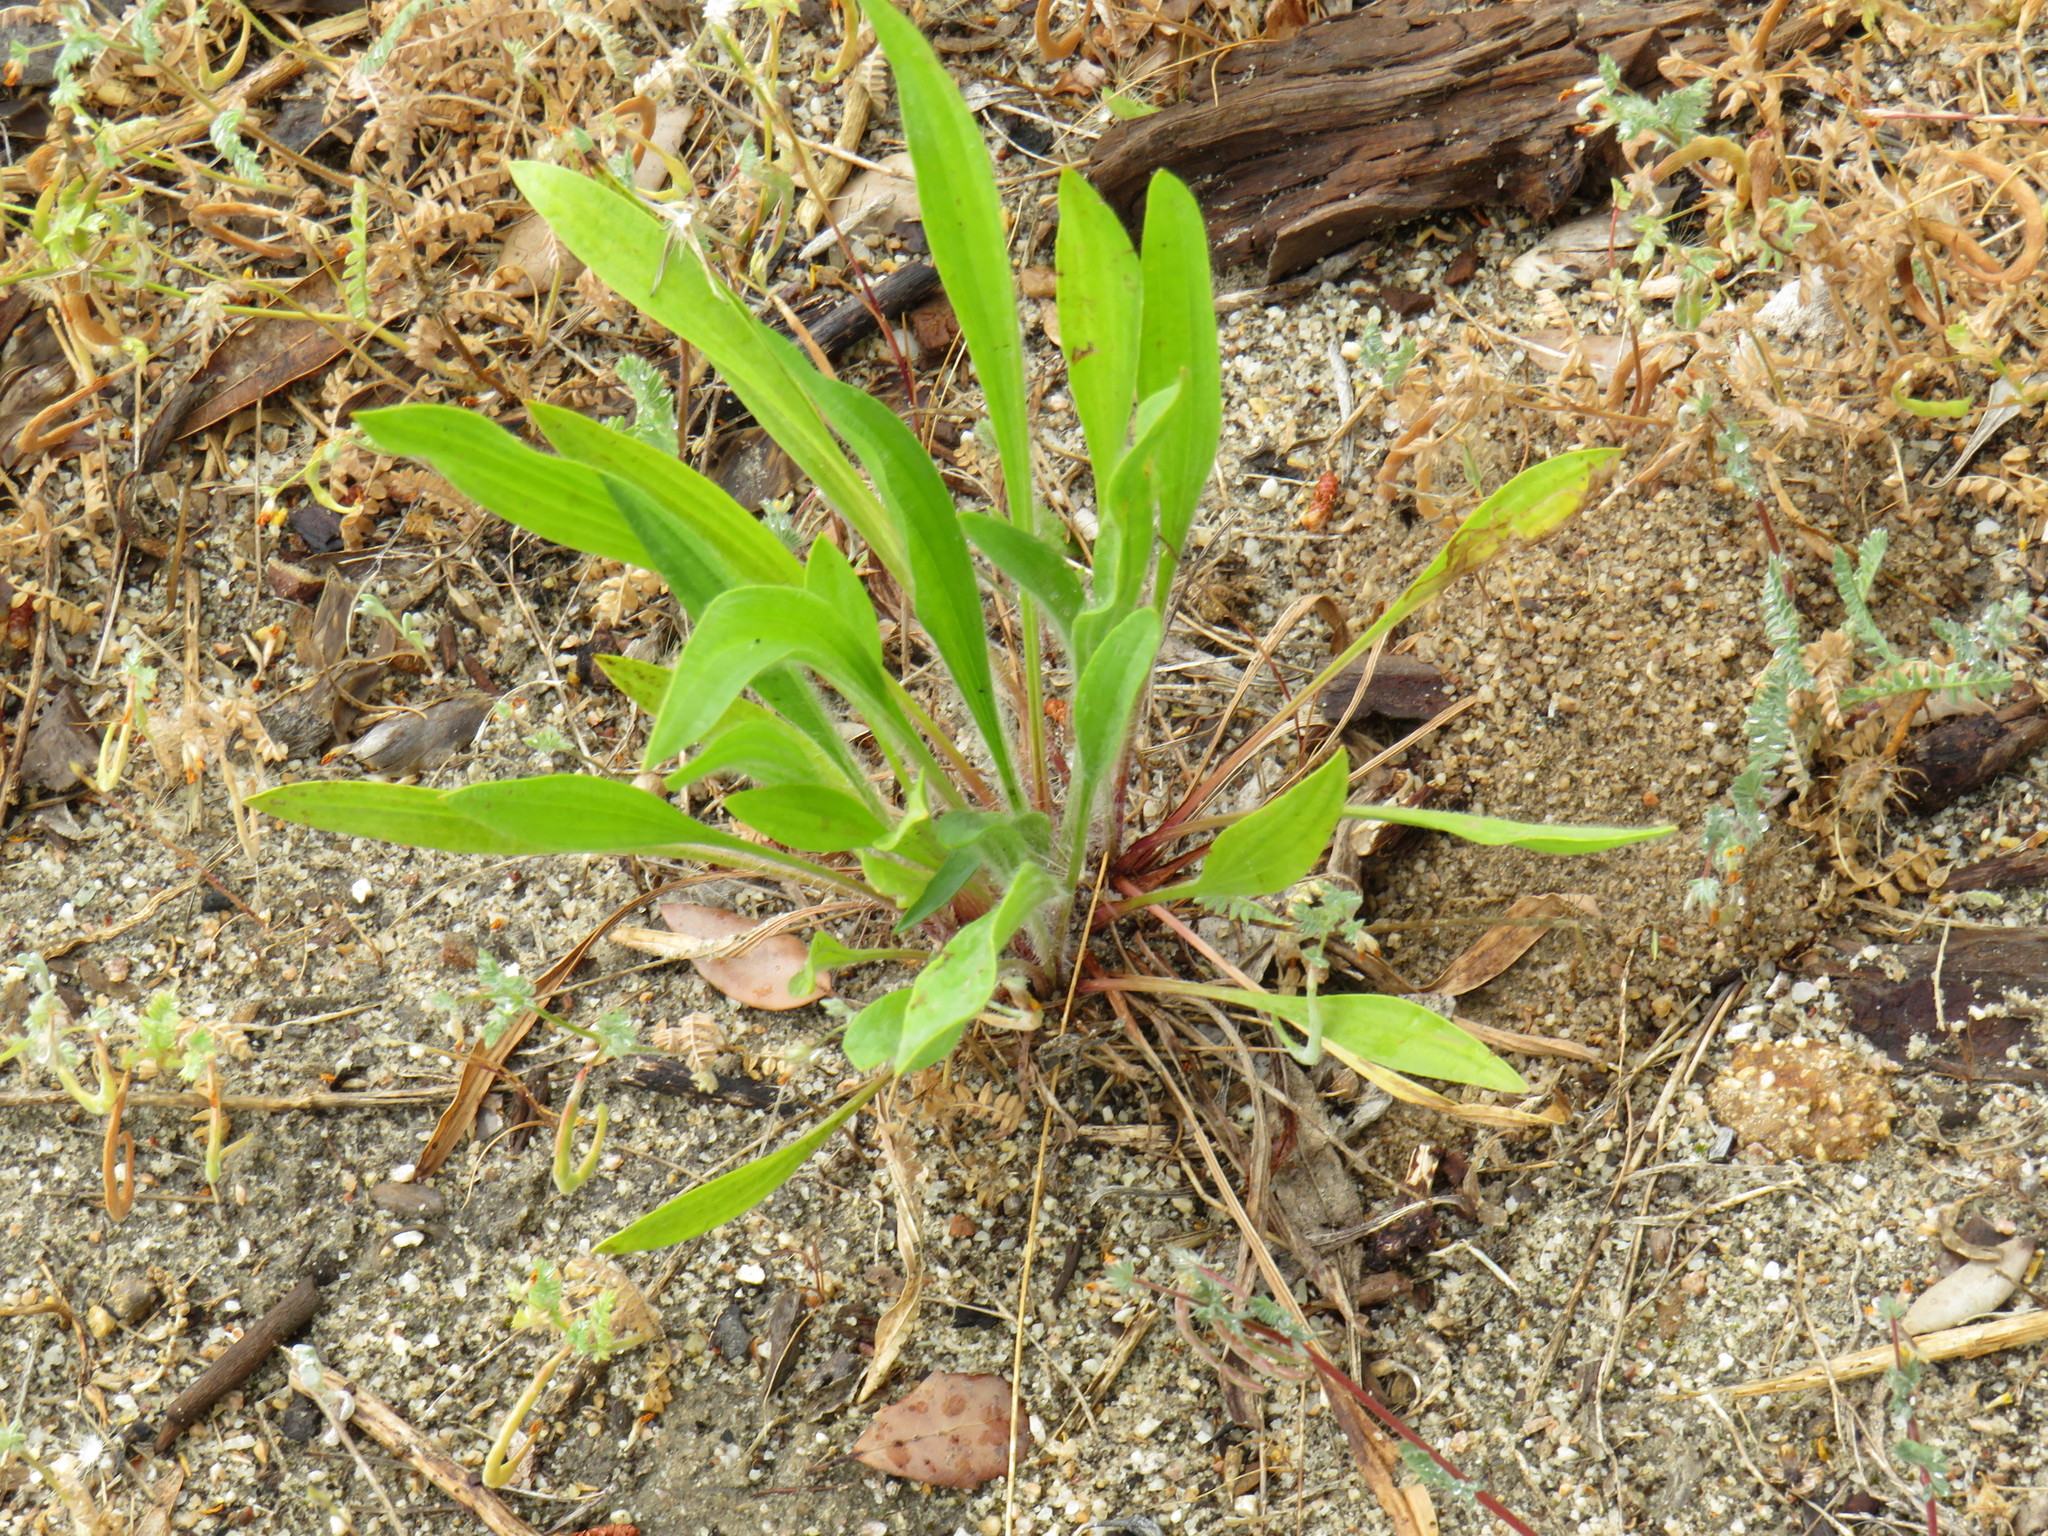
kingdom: Plantae
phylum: Tracheophyta
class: Magnoliopsida
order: Lamiales
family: Plantaginaceae
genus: Plantago
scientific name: Plantago lanceolata
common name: Ribwort plantain
